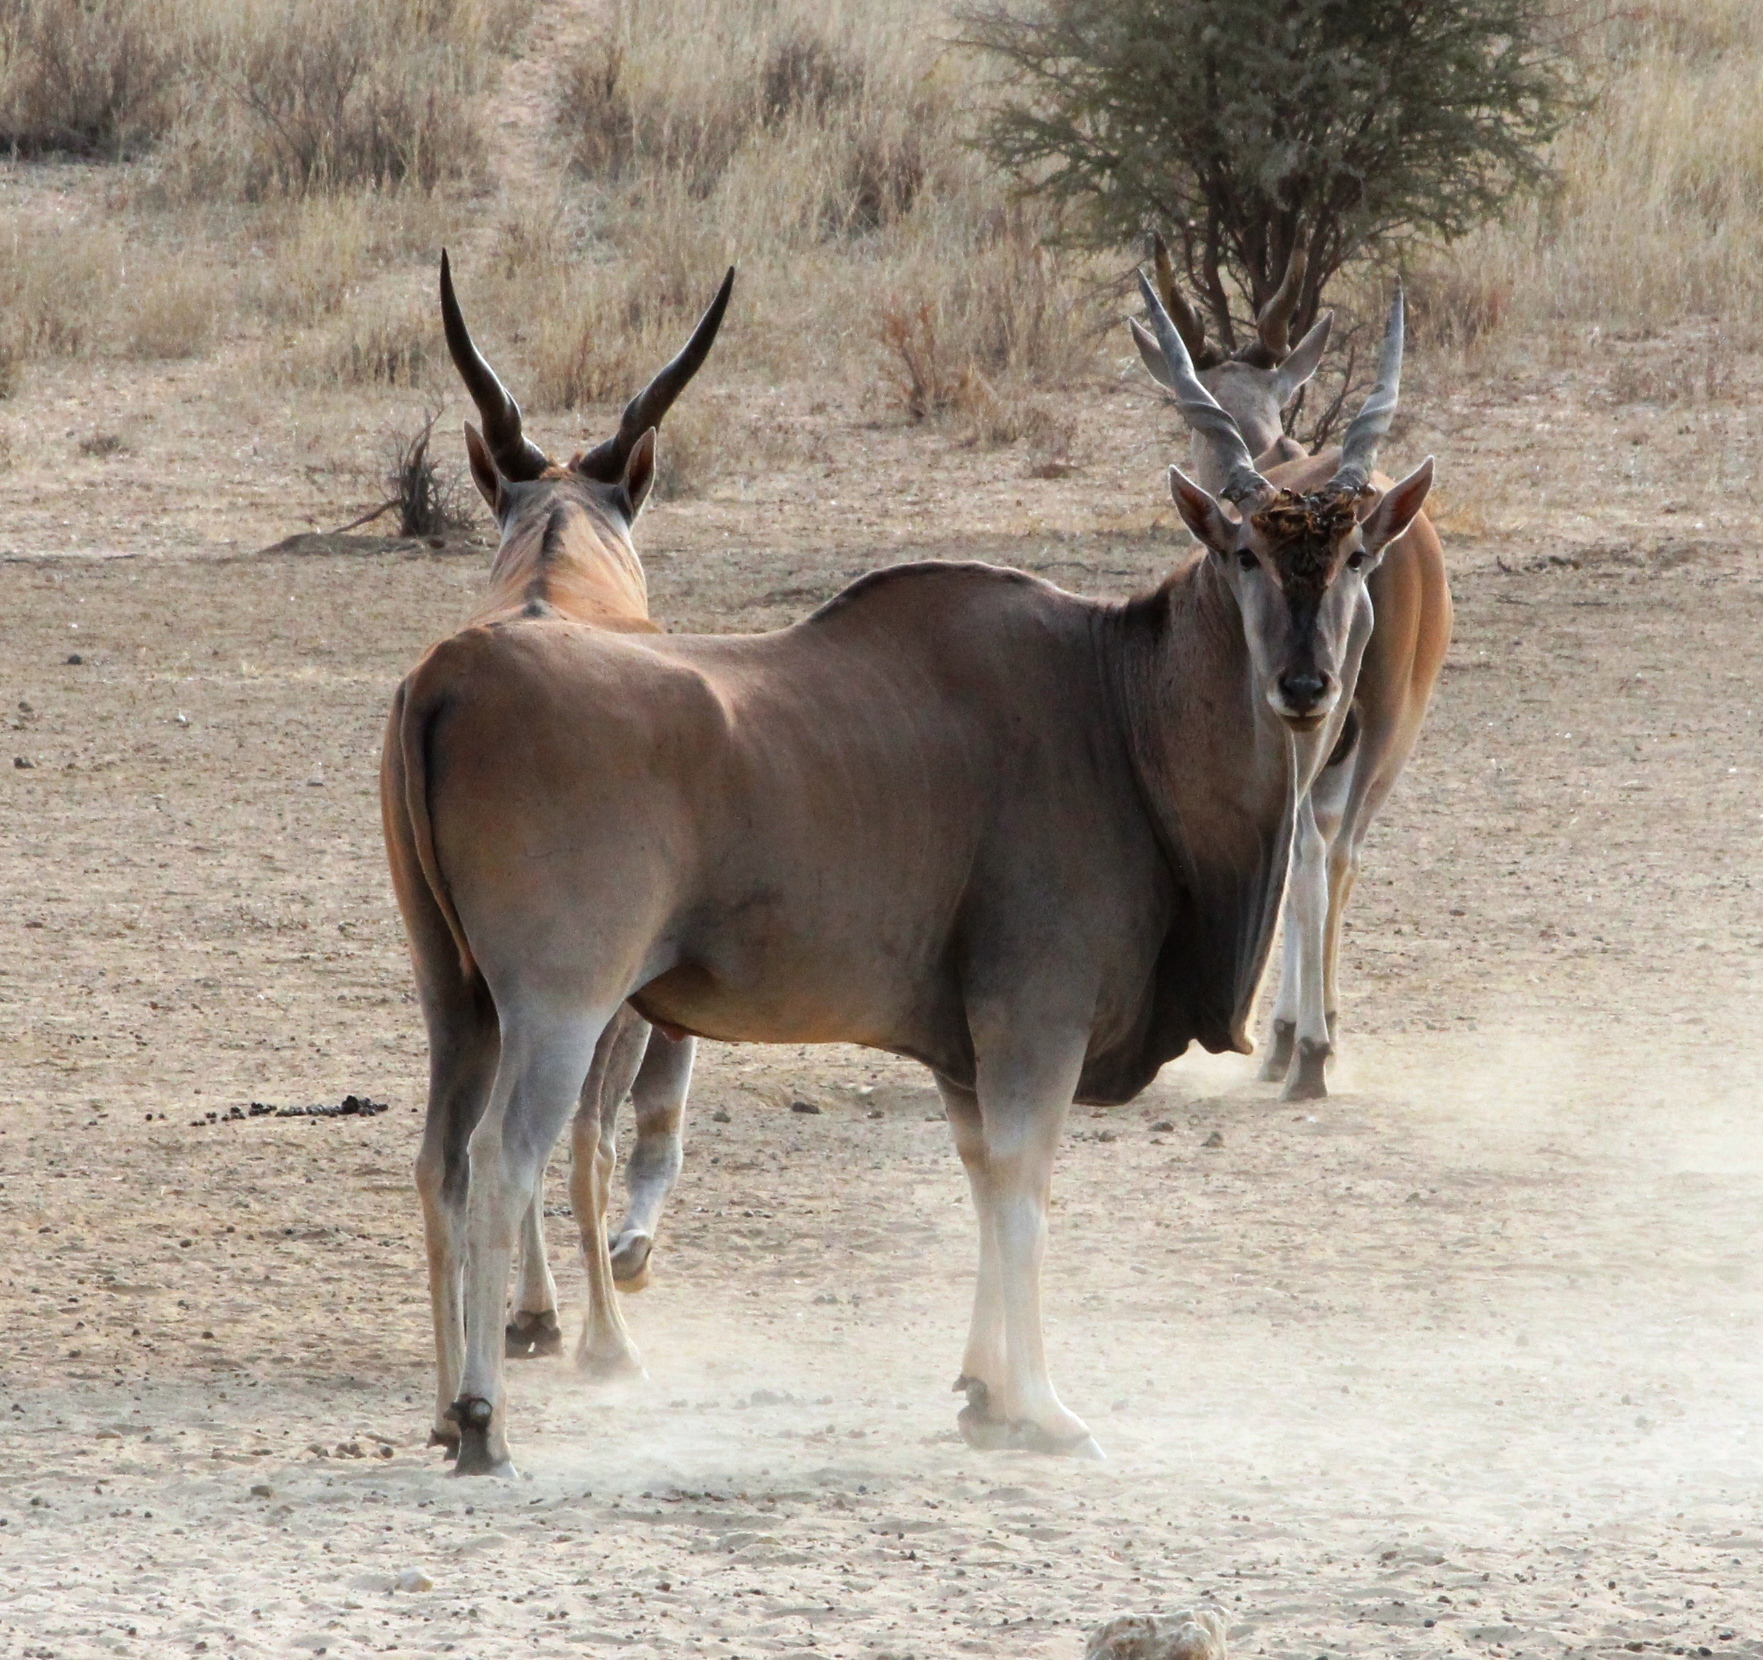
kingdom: Animalia
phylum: Chordata
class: Mammalia
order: Artiodactyla
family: Bovidae
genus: Taurotragus
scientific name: Taurotragus oryx
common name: Common eland
